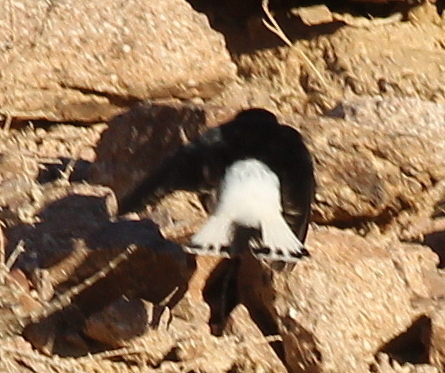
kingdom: Animalia
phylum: Chordata
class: Aves
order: Passeriformes
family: Muscicapidae
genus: Oenanthe
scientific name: Oenanthe leucopyga
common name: White-crowned wheatear
